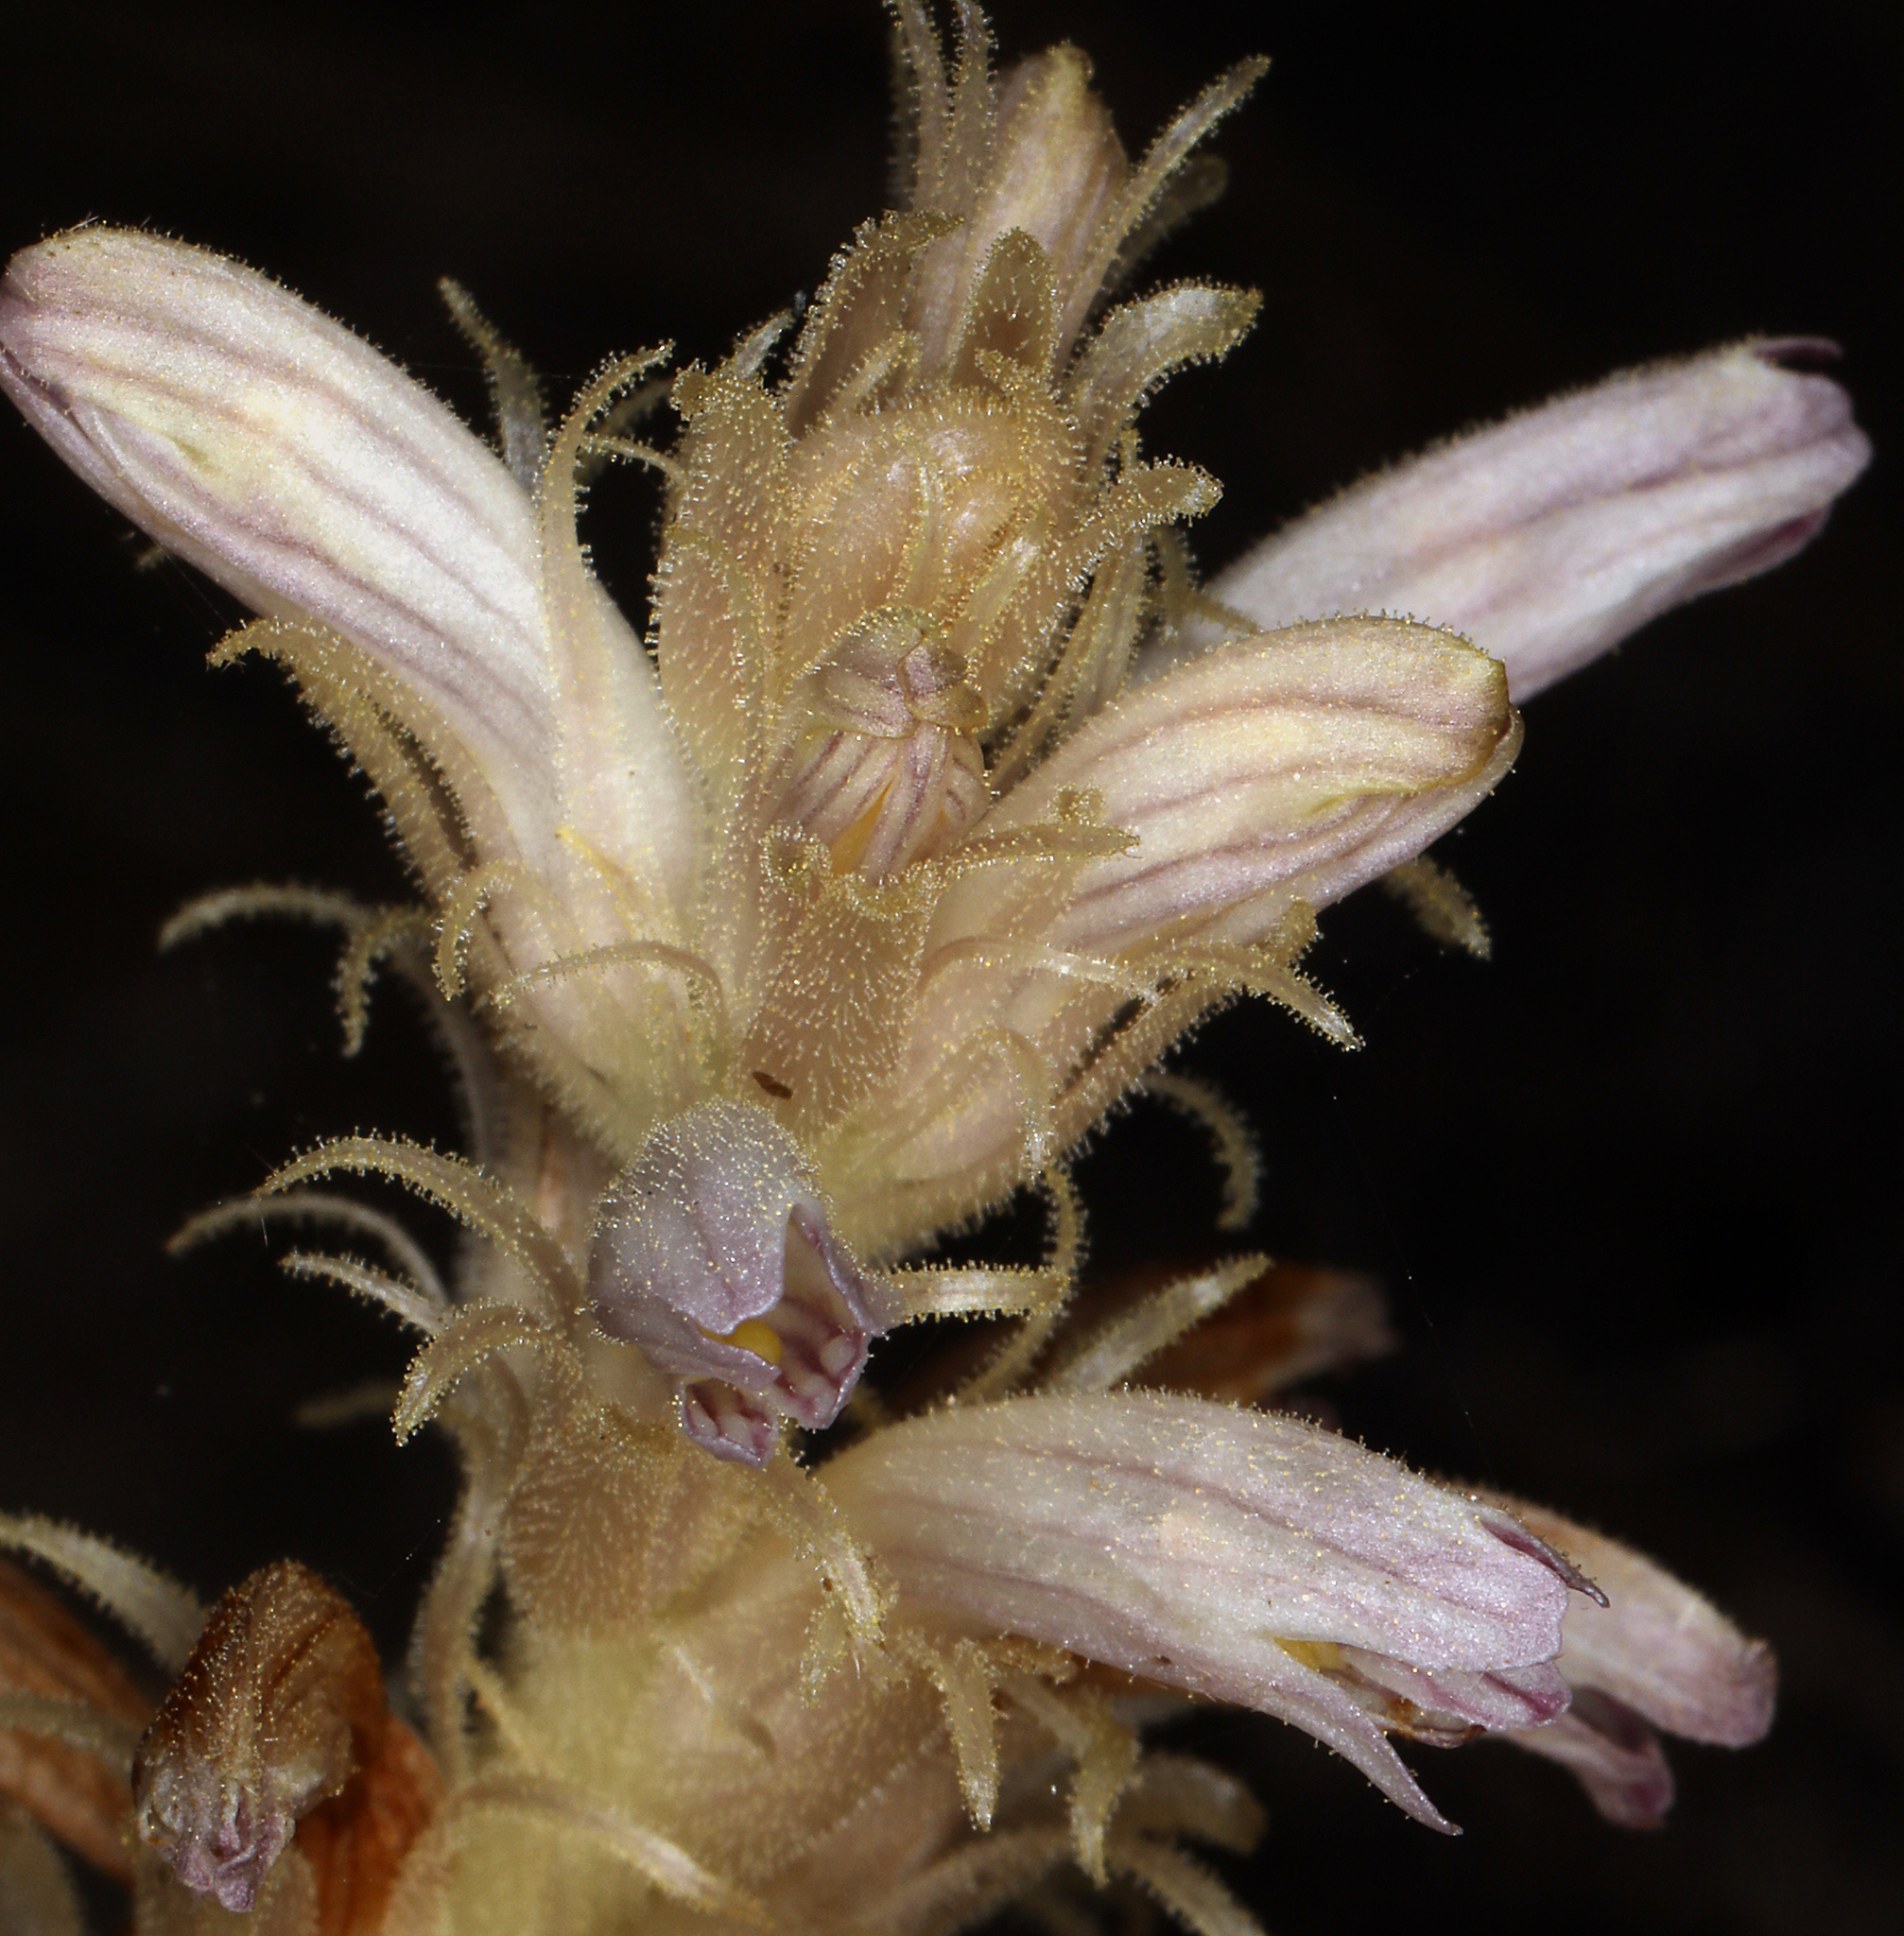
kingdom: Plantae
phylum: Tracheophyta
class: Magnoliopsida
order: Lamiales
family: Orobanchaceae
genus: Aphyllon
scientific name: Aphyllon parishii
